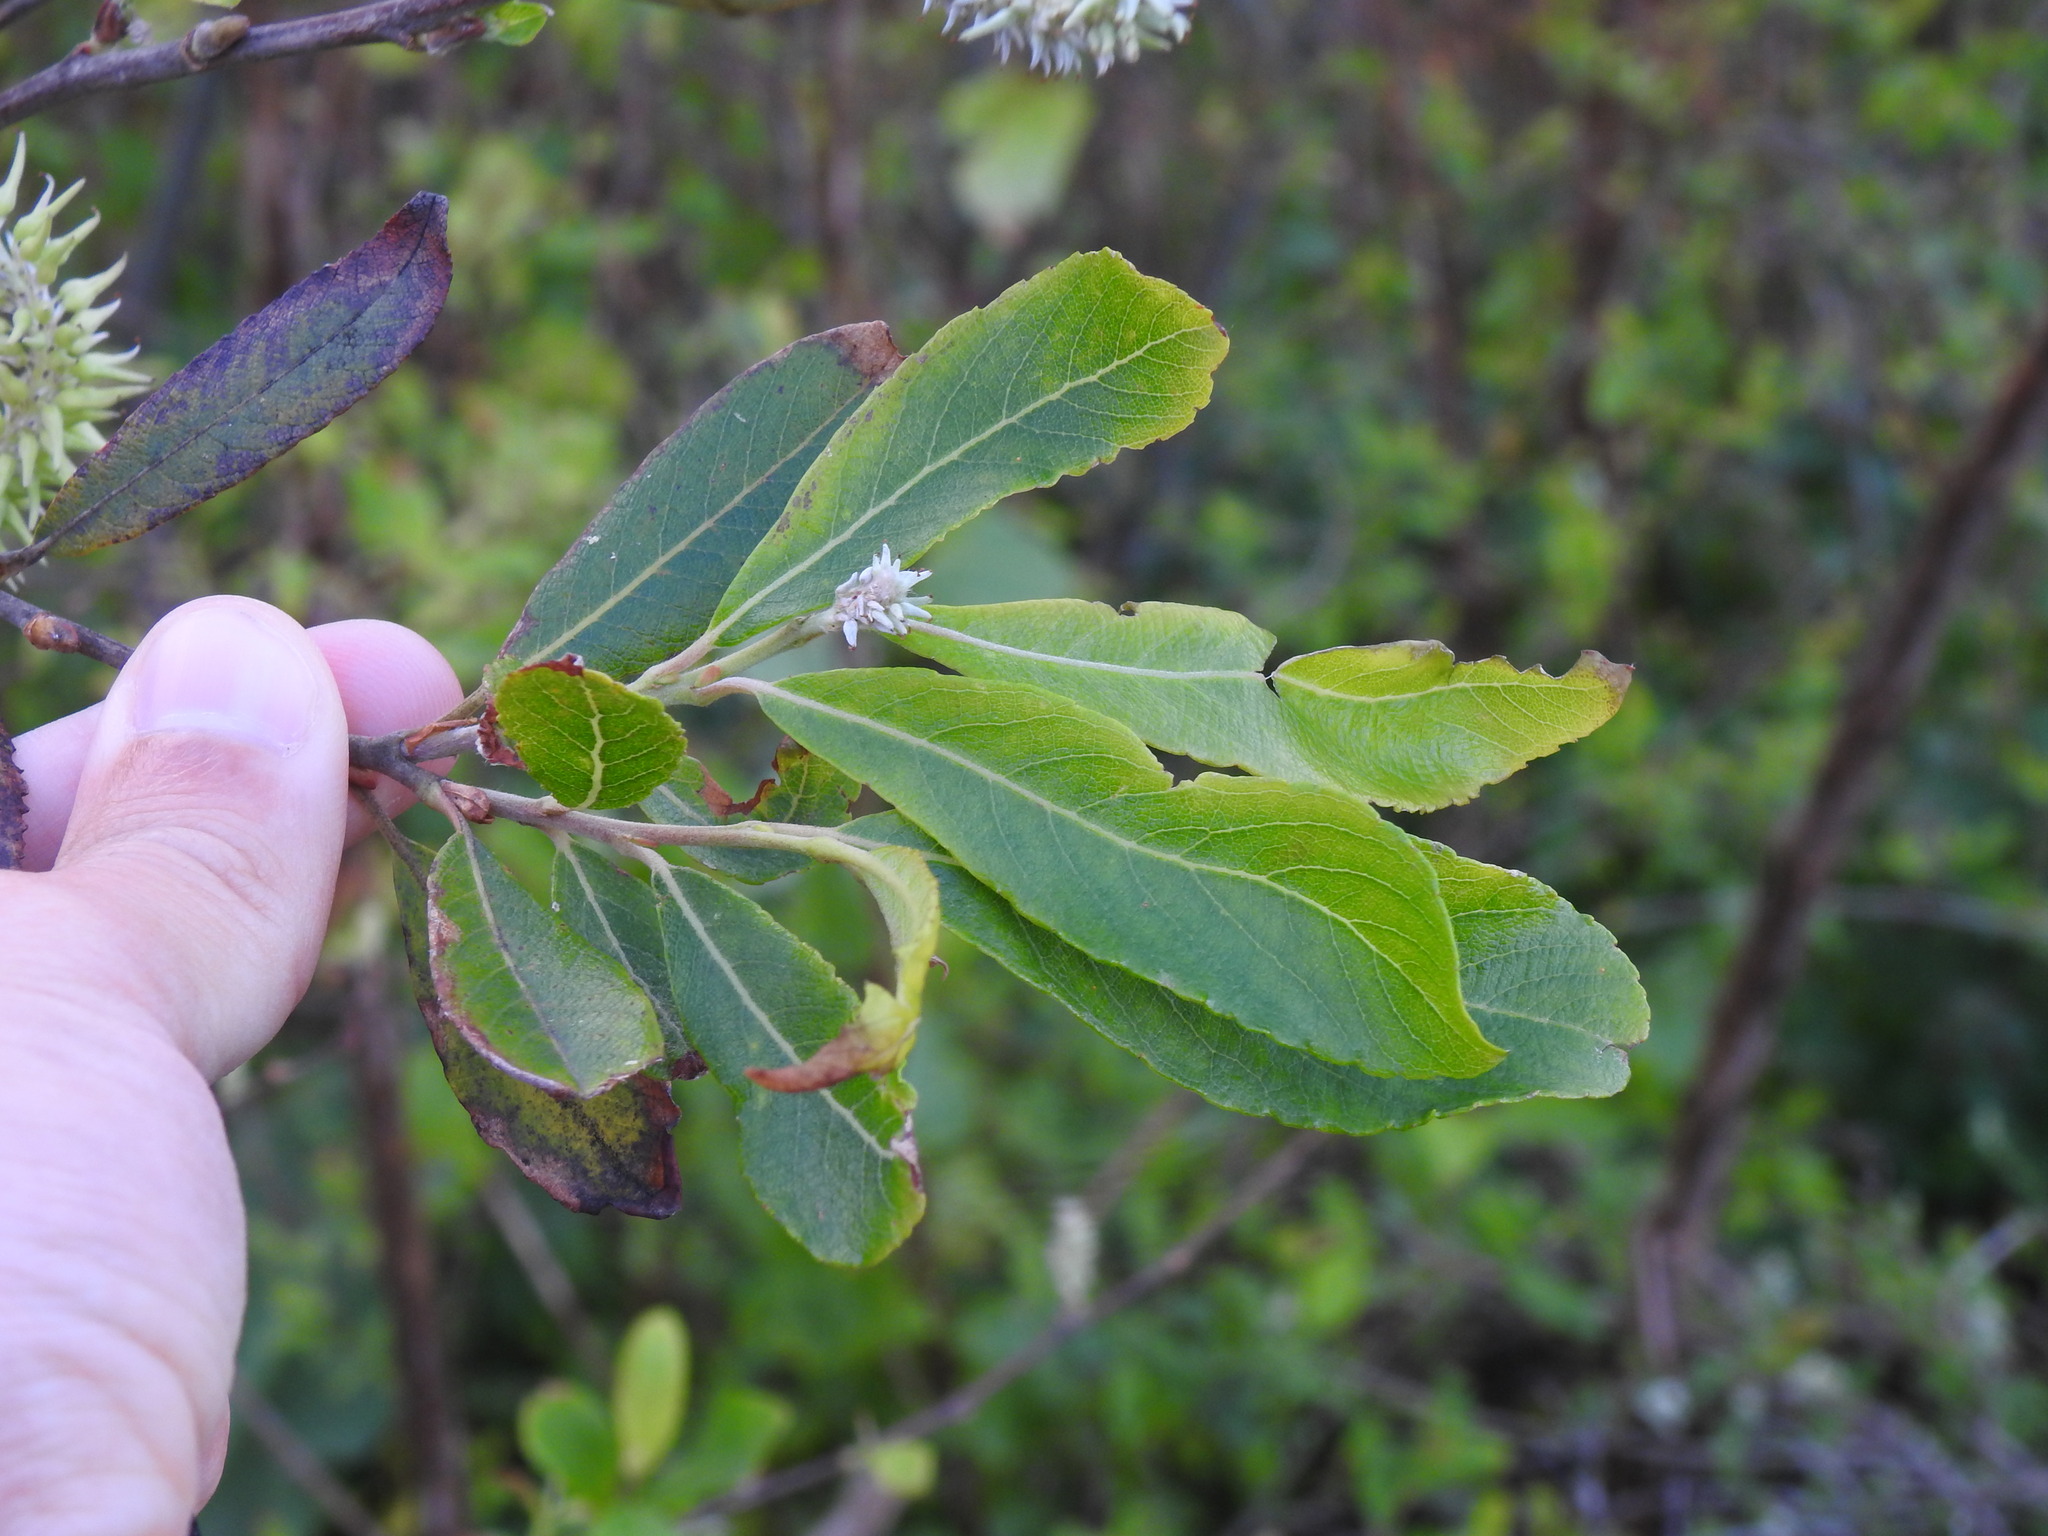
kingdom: Plantae
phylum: Tracheophyta
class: Magnoliopsida
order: Malpighiales
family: Salicaceae
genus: Salix
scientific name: Salix atrocinerea
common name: Rusty willow
